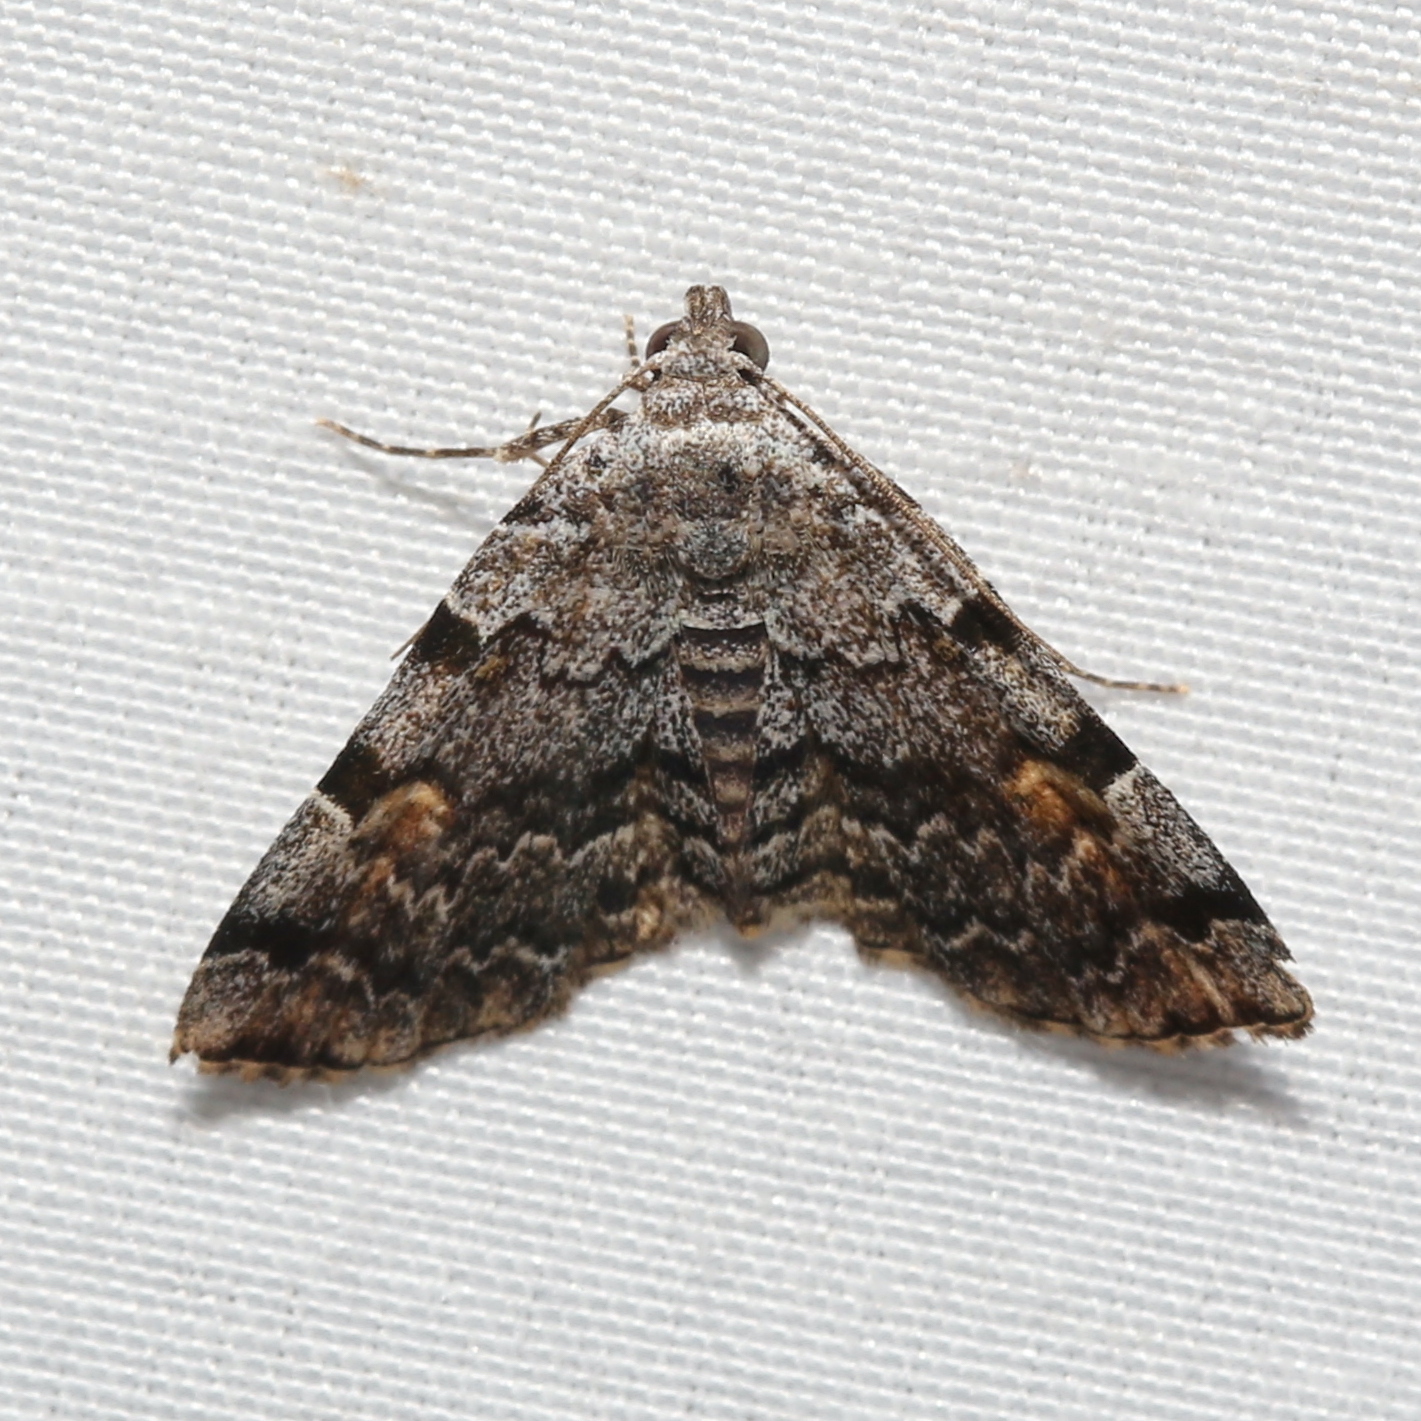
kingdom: Animalia
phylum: Arthropoda
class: Insecta
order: Lepidoptera
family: Erebidae
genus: Idia
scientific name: Idia americalis
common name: American idia moth
